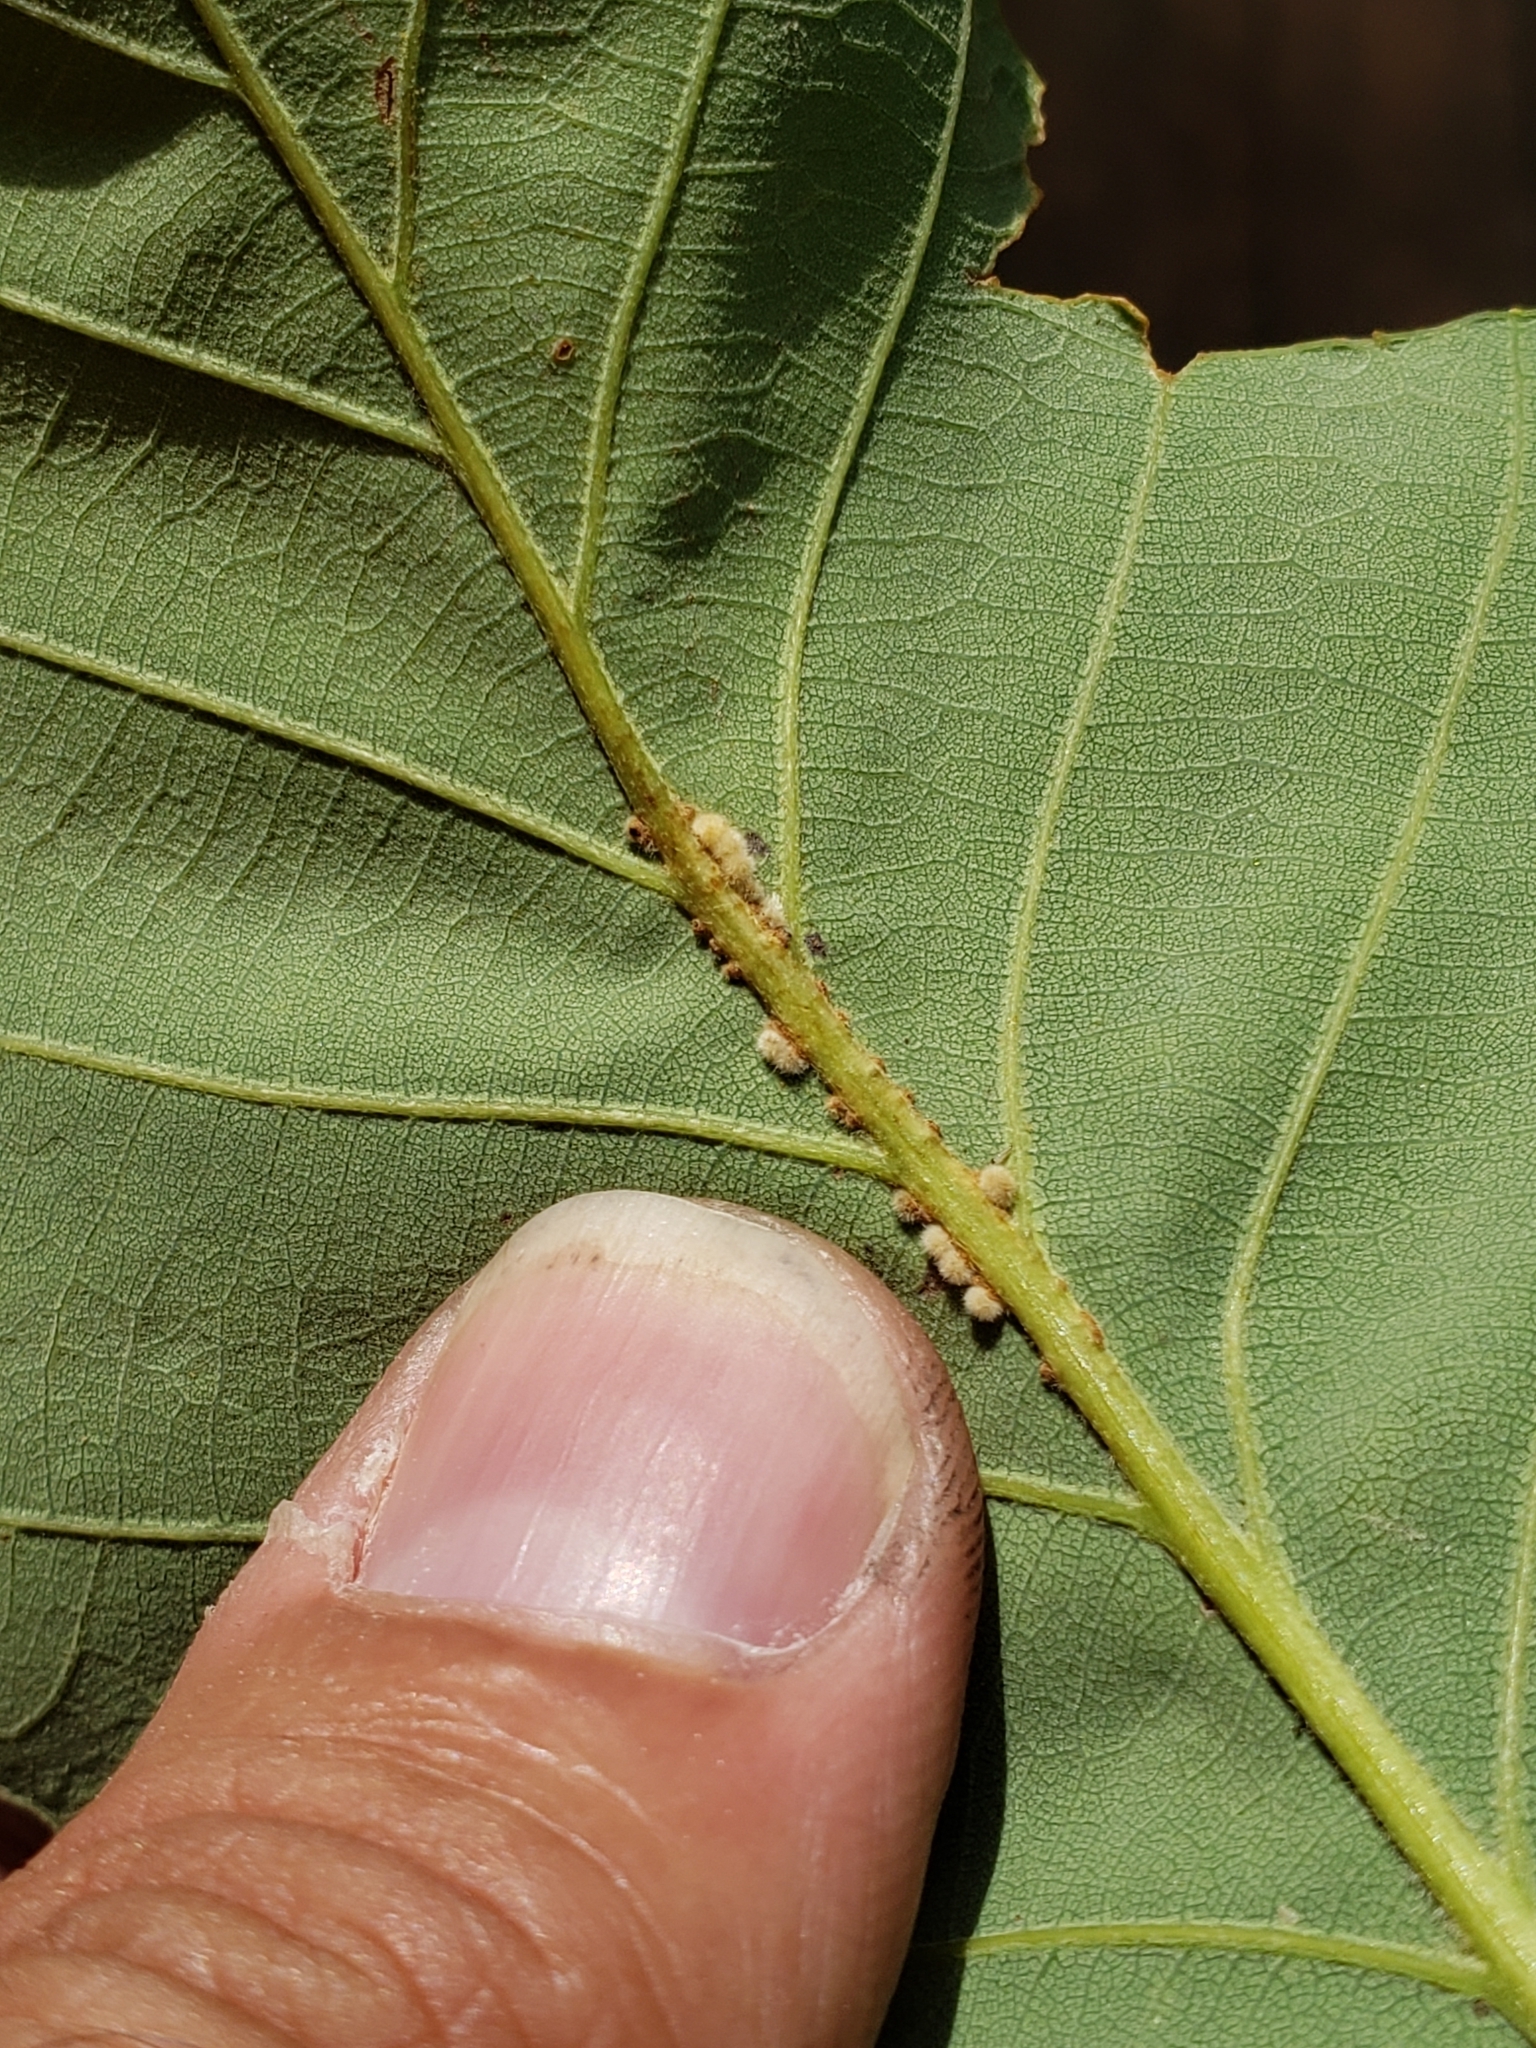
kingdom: Animalia
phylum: Arthropoda
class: Insecta
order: Hymenoptera
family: Cynipidae
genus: Andricus
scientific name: Andricus
